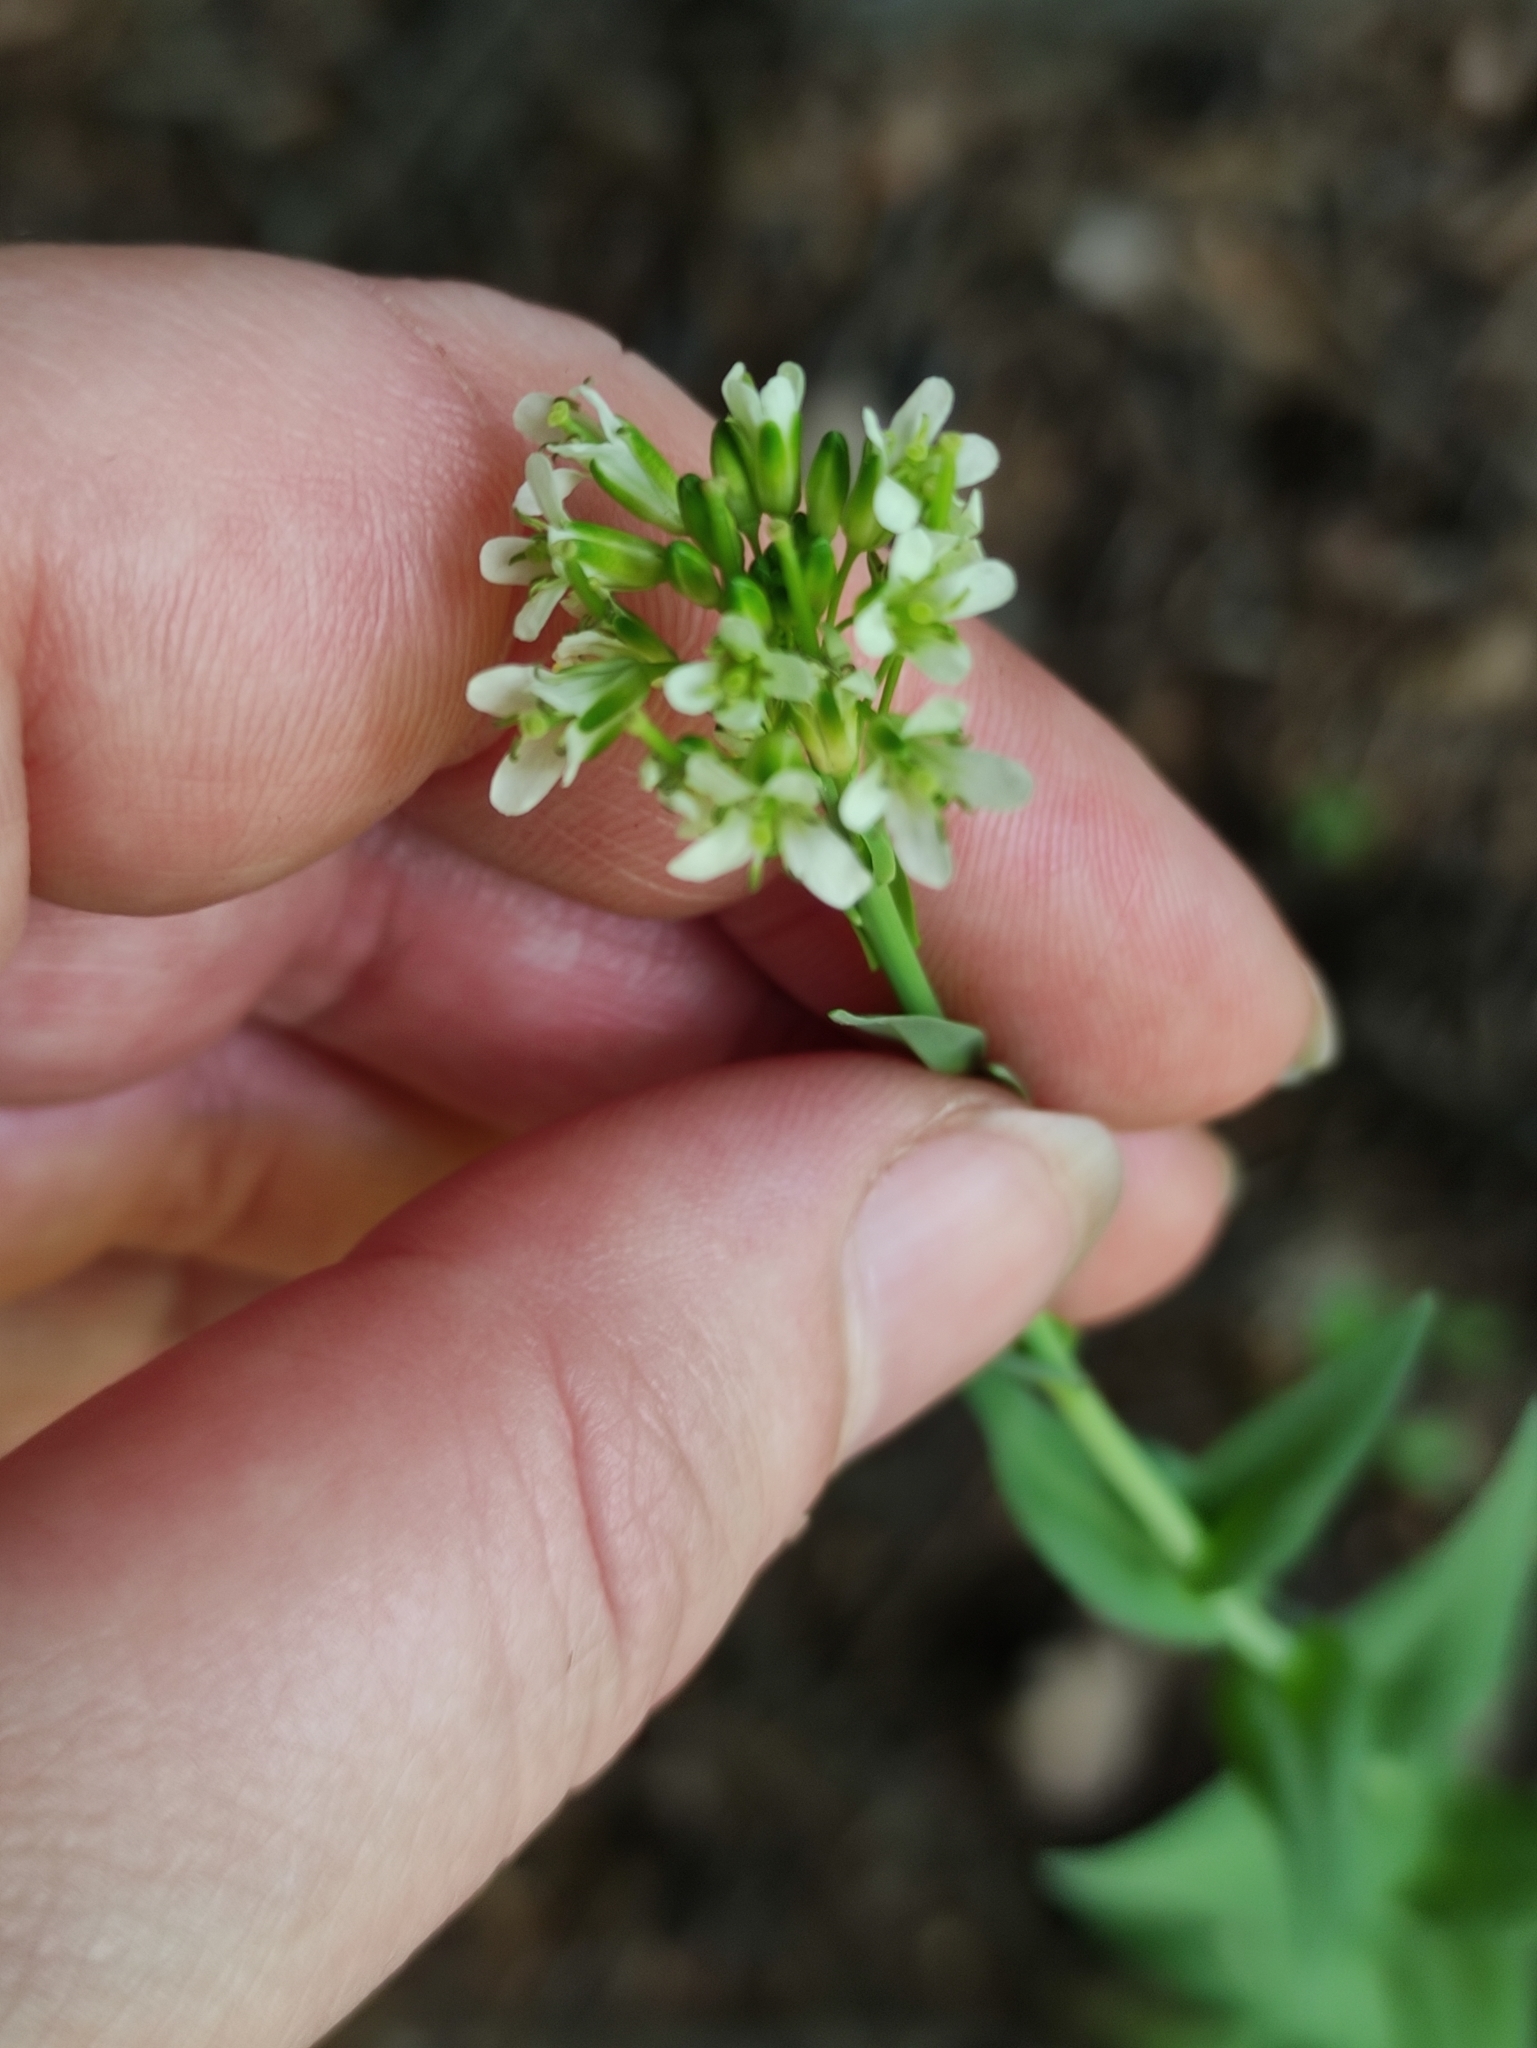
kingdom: Plantae
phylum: Tracheophyta
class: Magnoliopsida
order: Brassicales
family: Brassicaceae
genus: Turritis
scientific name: Turritis glabra
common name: Tower rockcress
